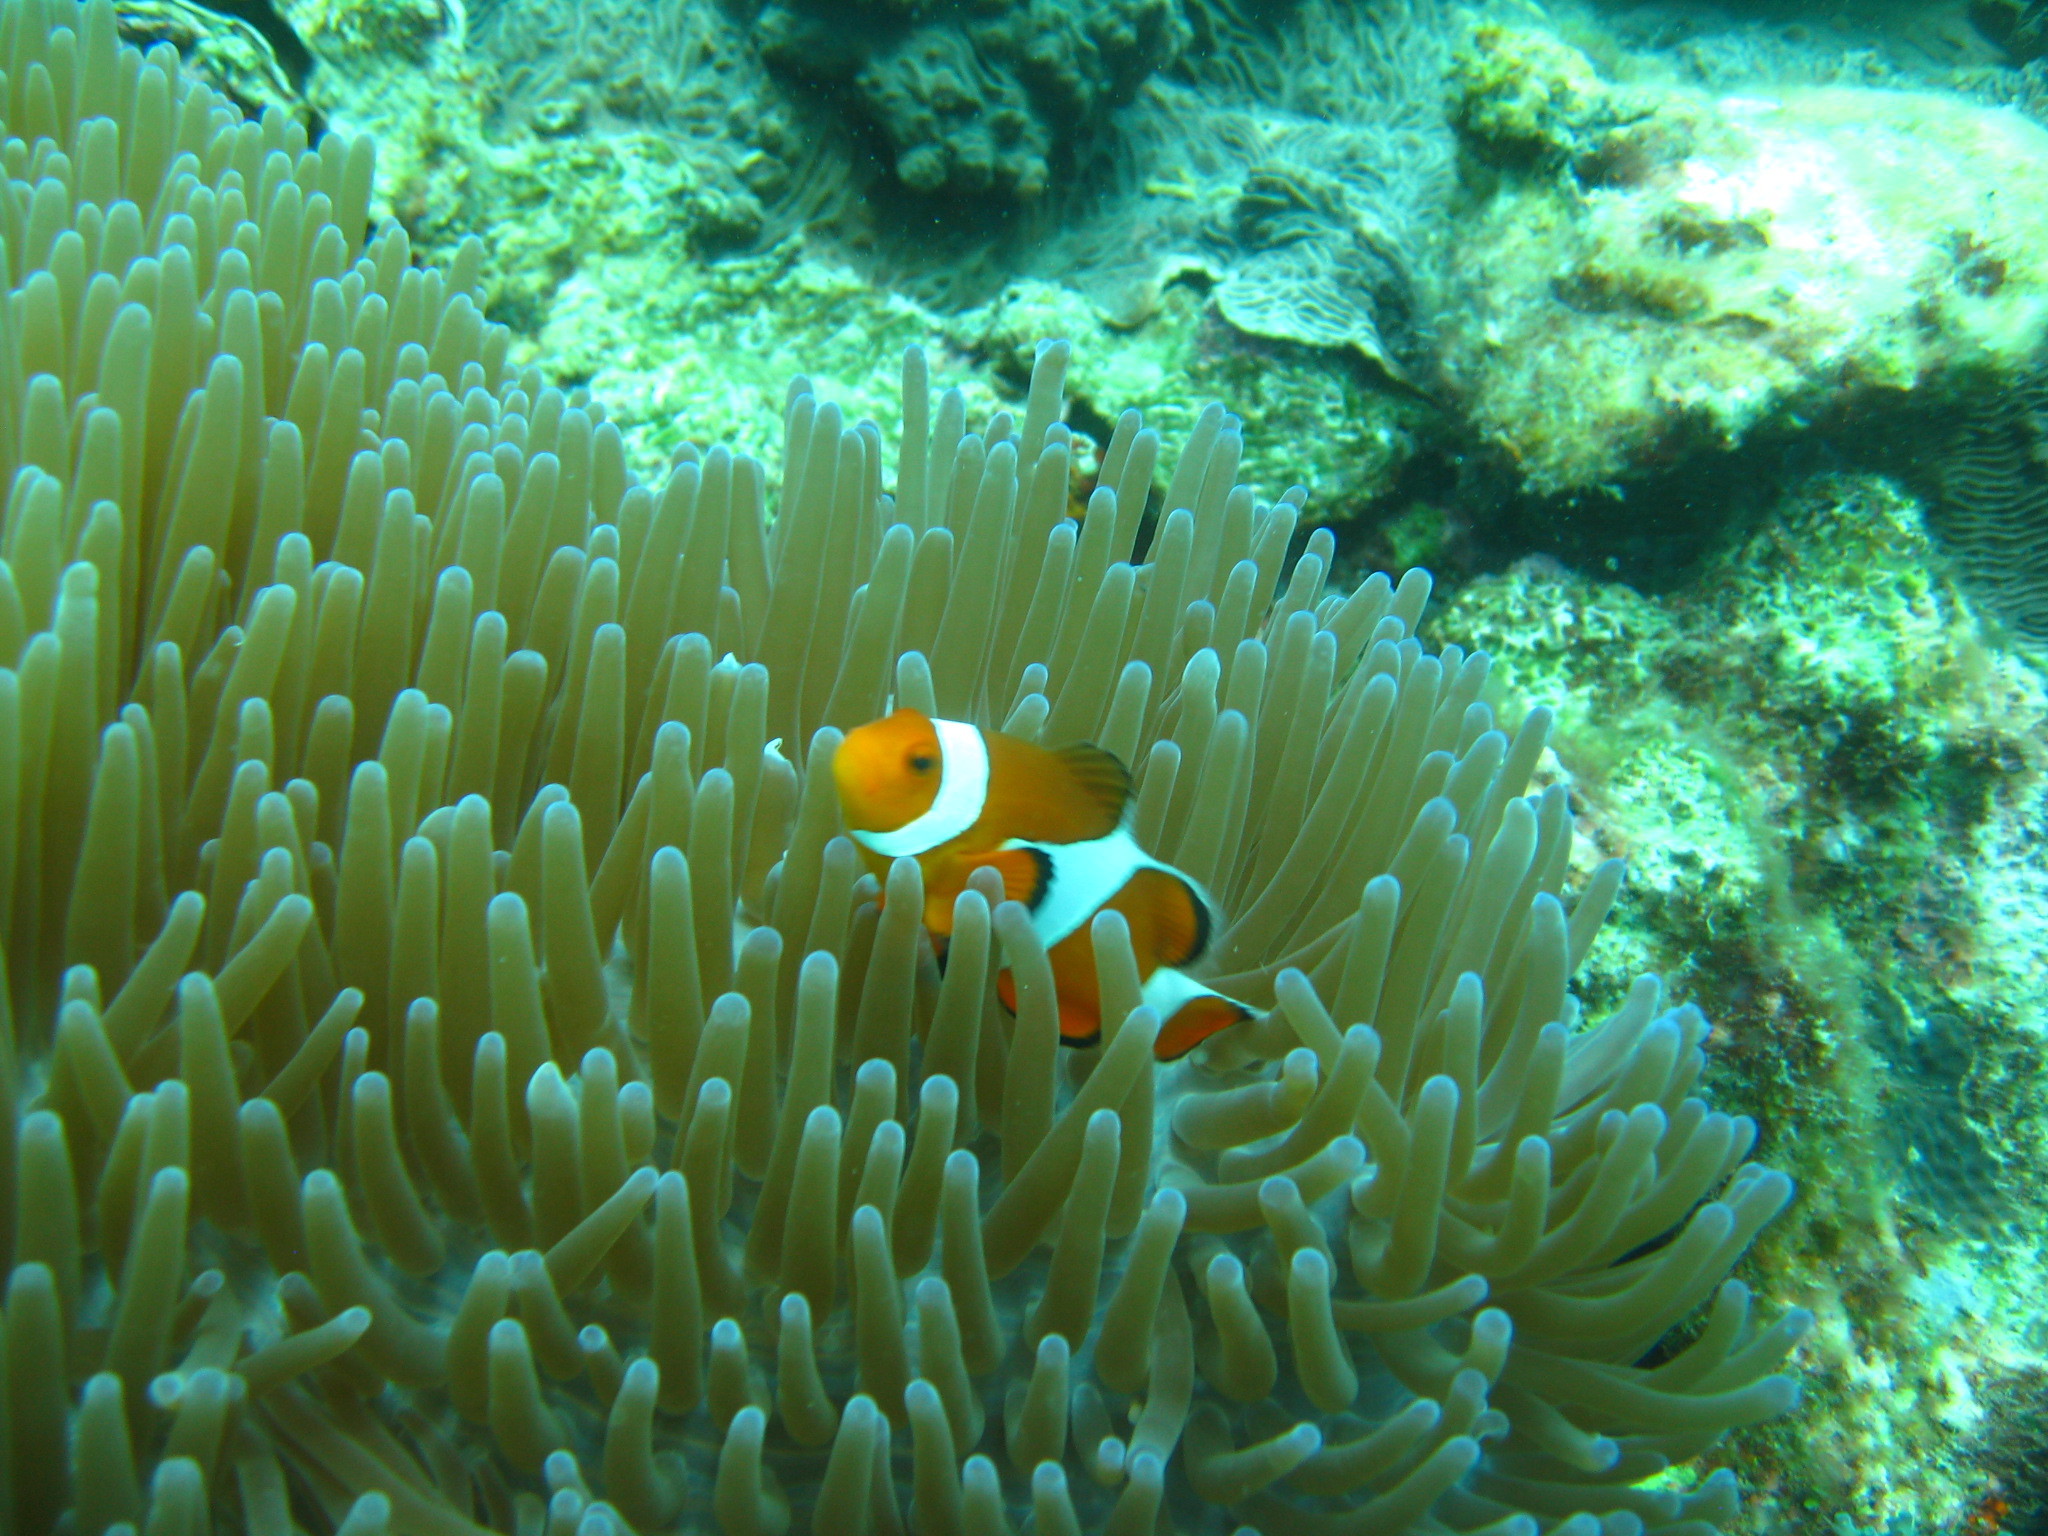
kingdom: Animalia
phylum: Chordata
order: Perciformes
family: Pomacentridae
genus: Amphiprion
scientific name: Amphiprion ocellaris
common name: Clown anemonefish
